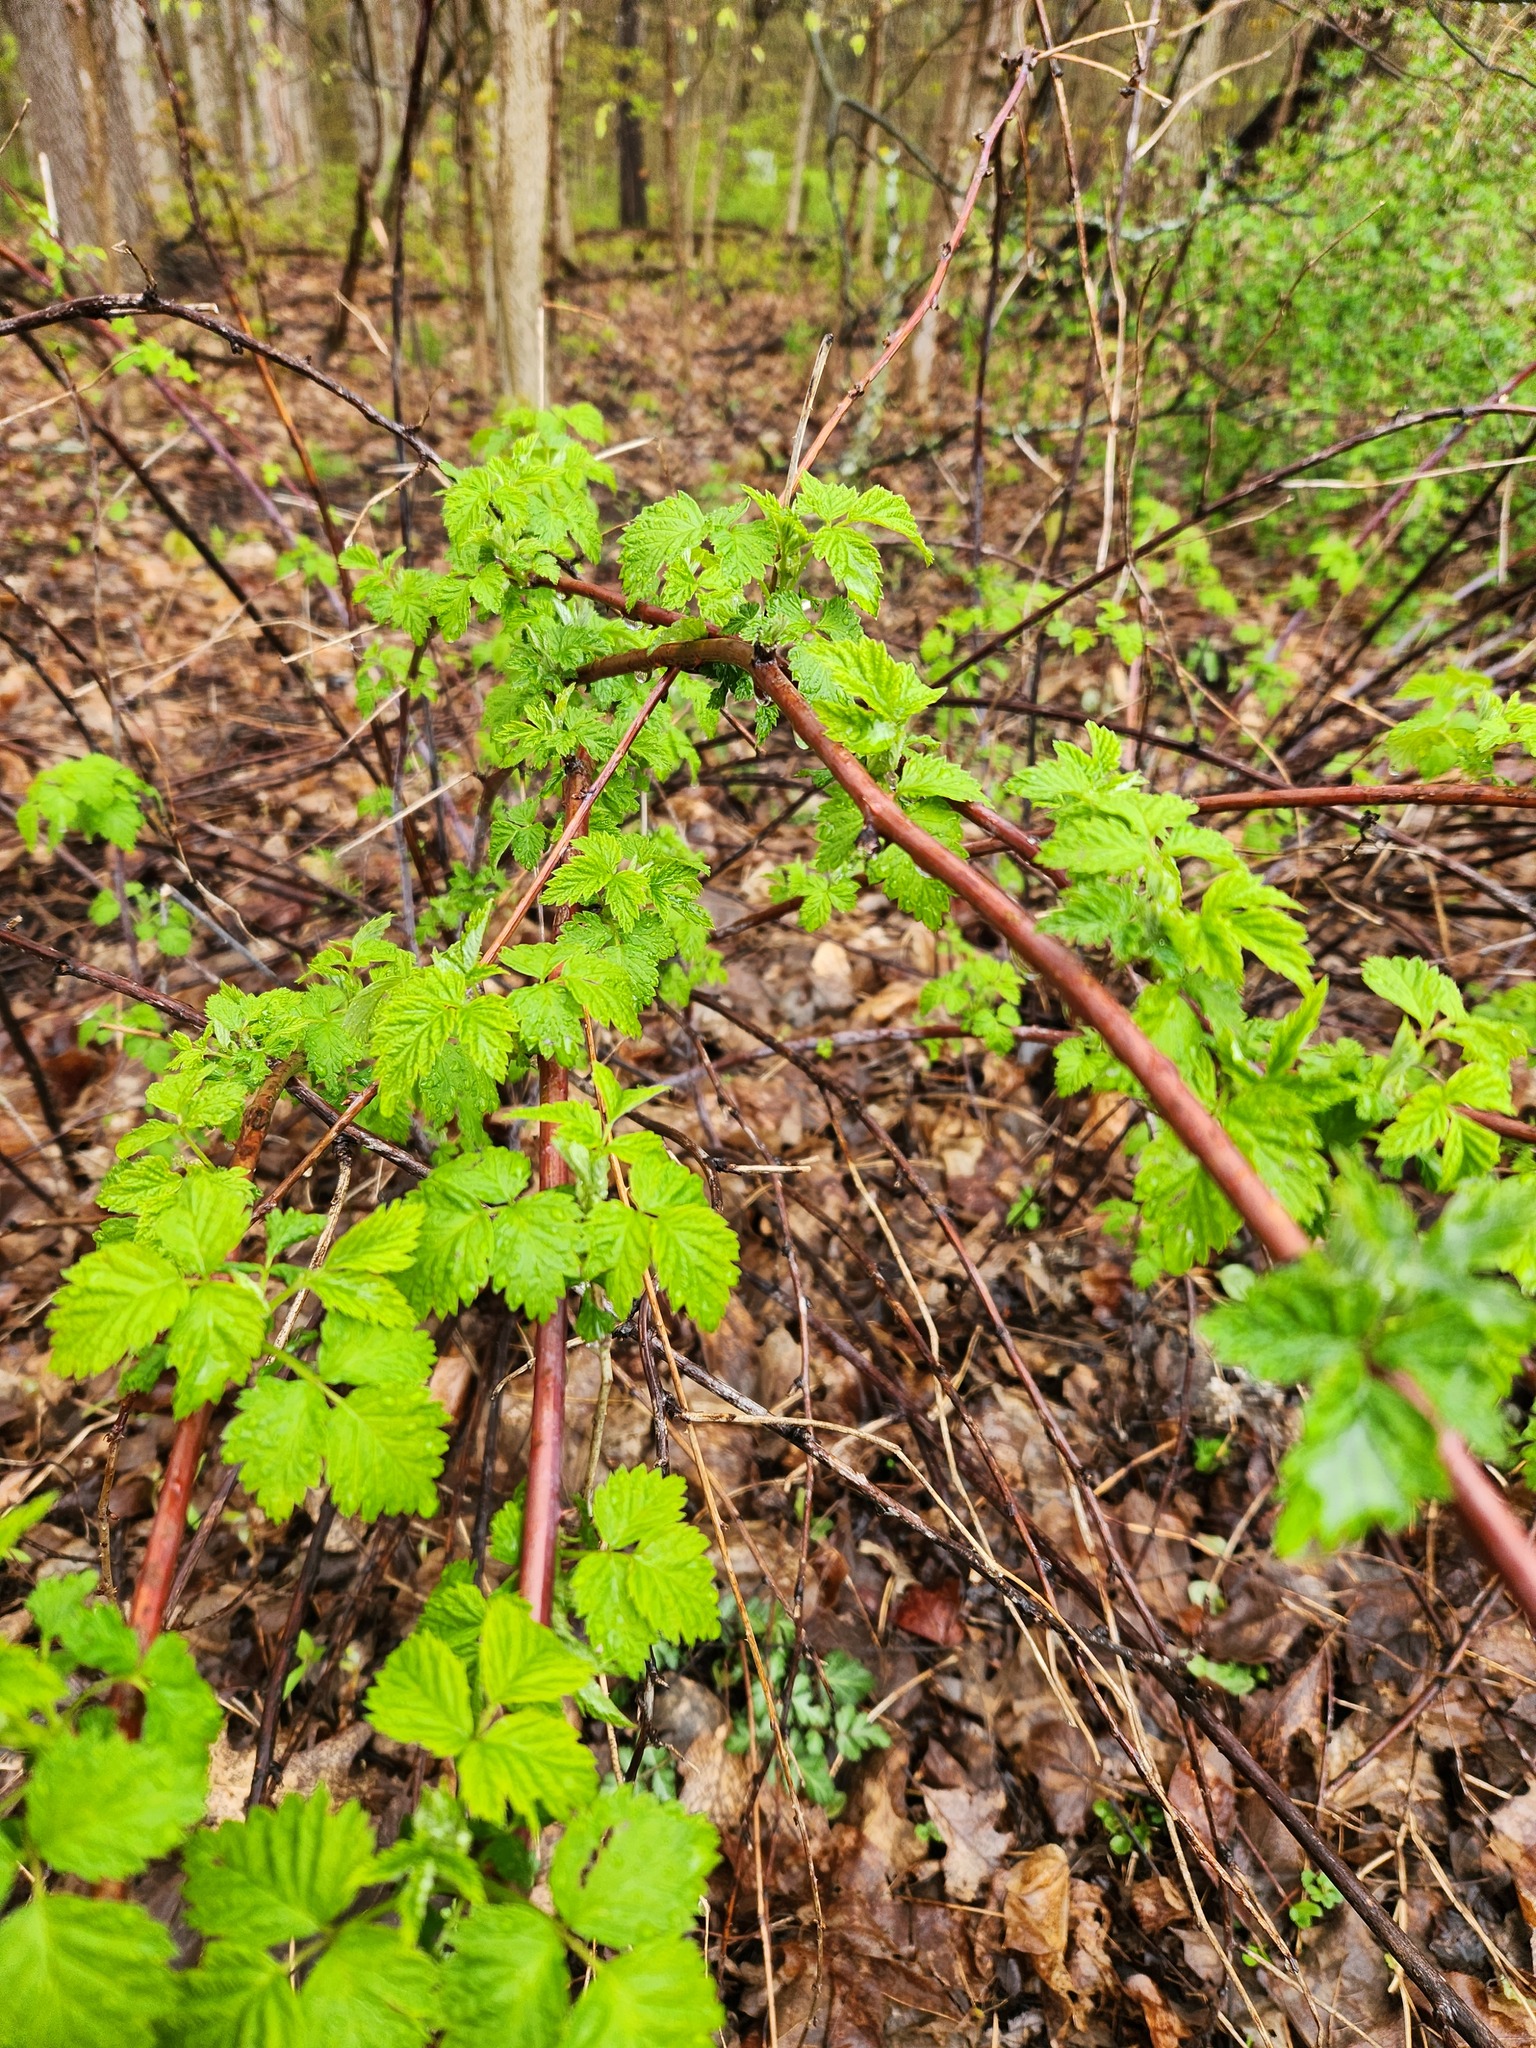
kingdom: Plantae
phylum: Tracheophyta
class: Magnoliopsida
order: Rosales
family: Rosaceae
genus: Rubus
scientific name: Rubus occidentalis
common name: Black raspberry
